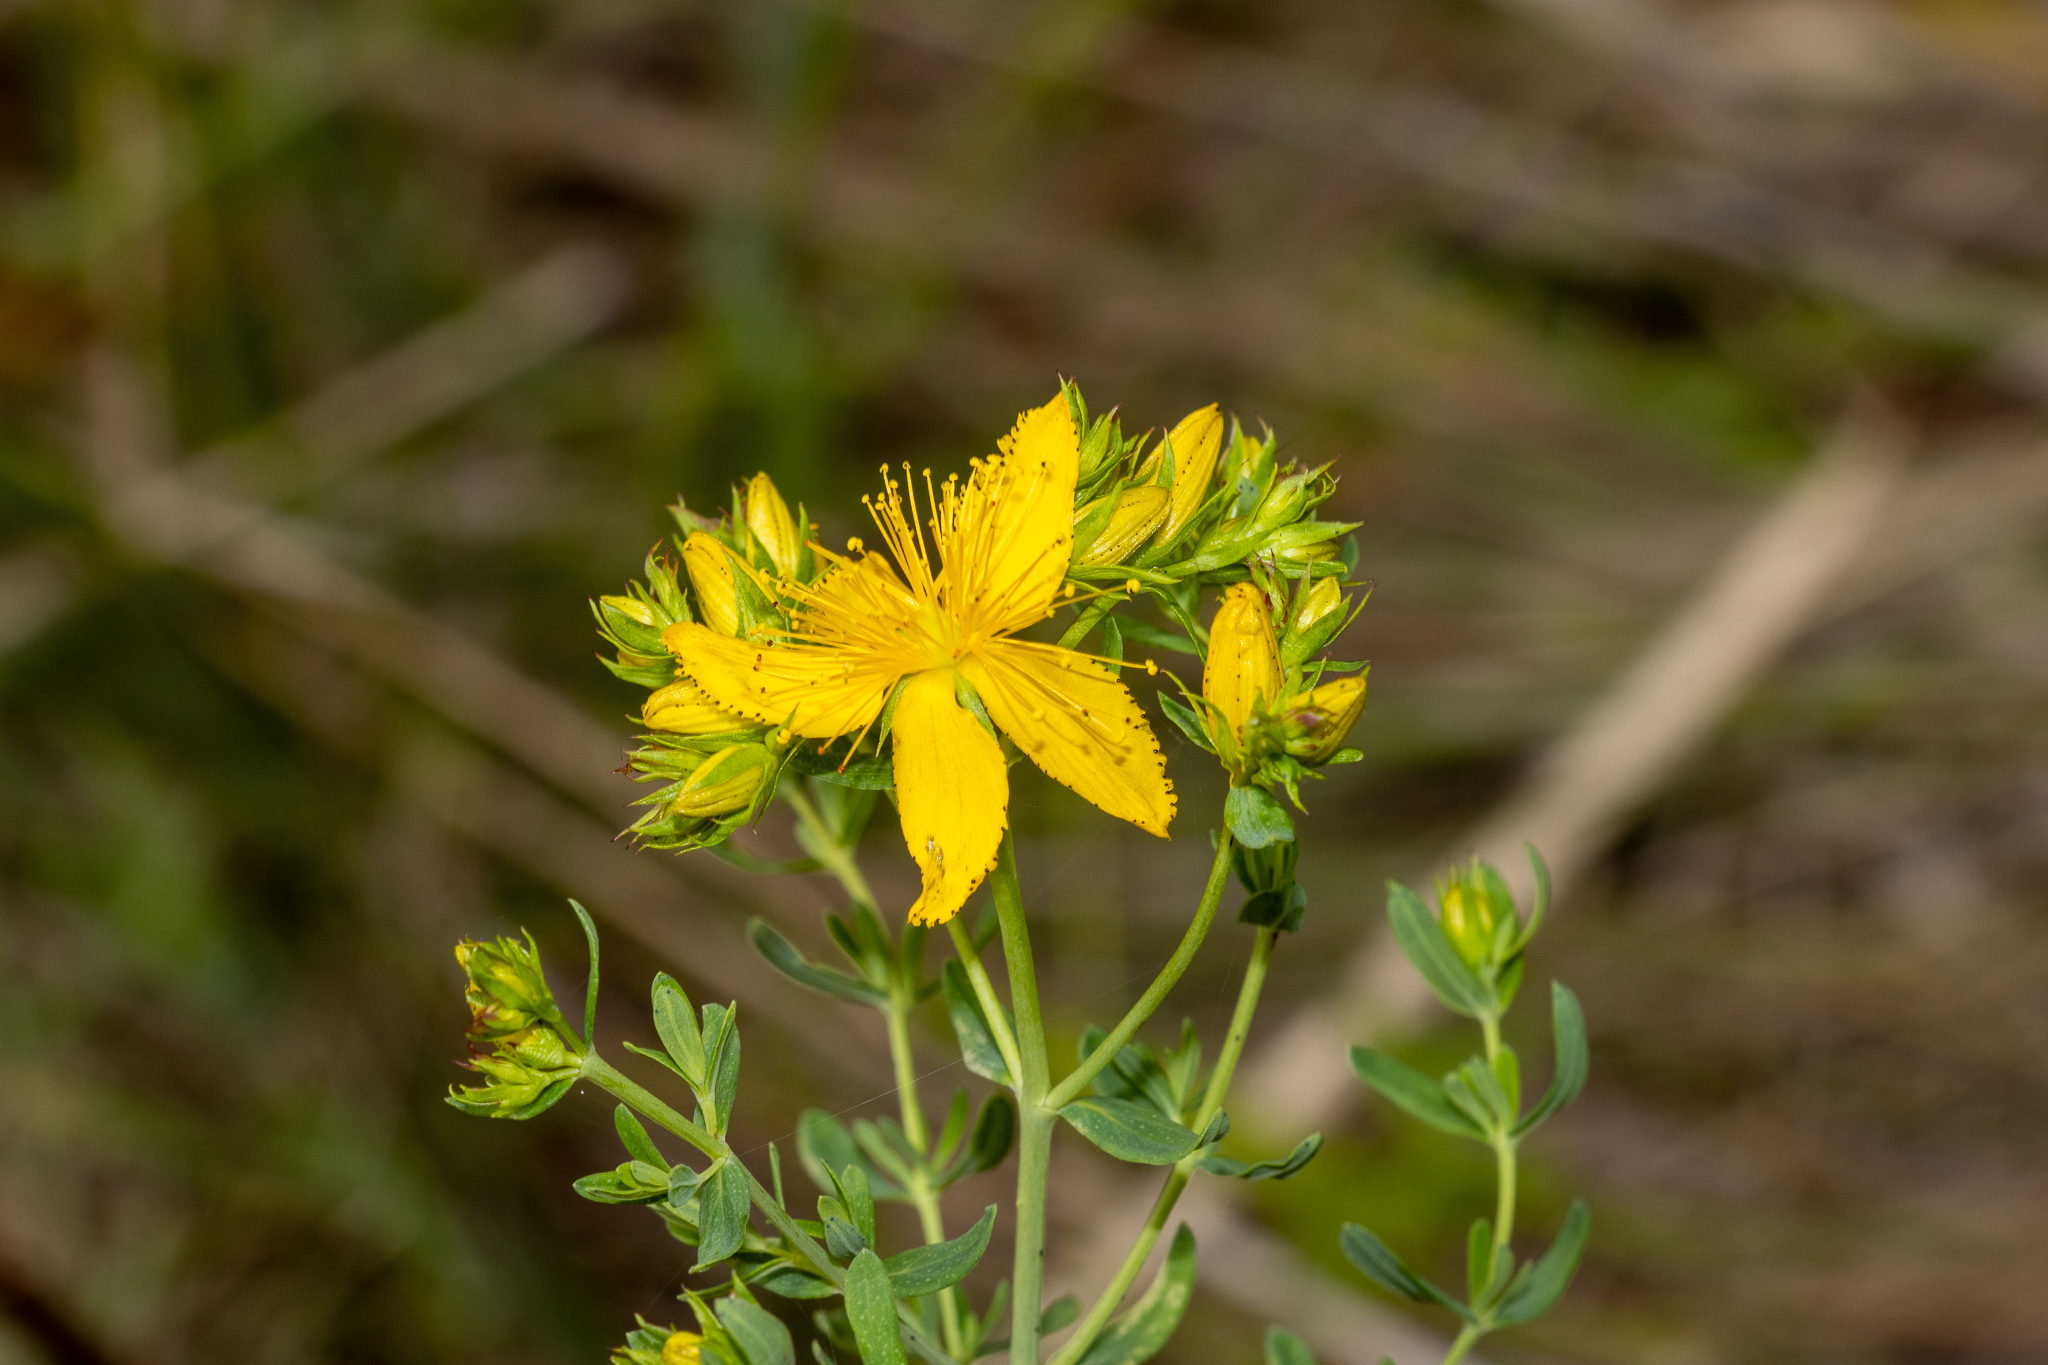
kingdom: Plantae
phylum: Tracheophyta
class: Magnoliopsida
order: Malpighiales
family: Hypericaceae
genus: Hypericum
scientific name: Hypericum perforatum
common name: Common st. johnswort
